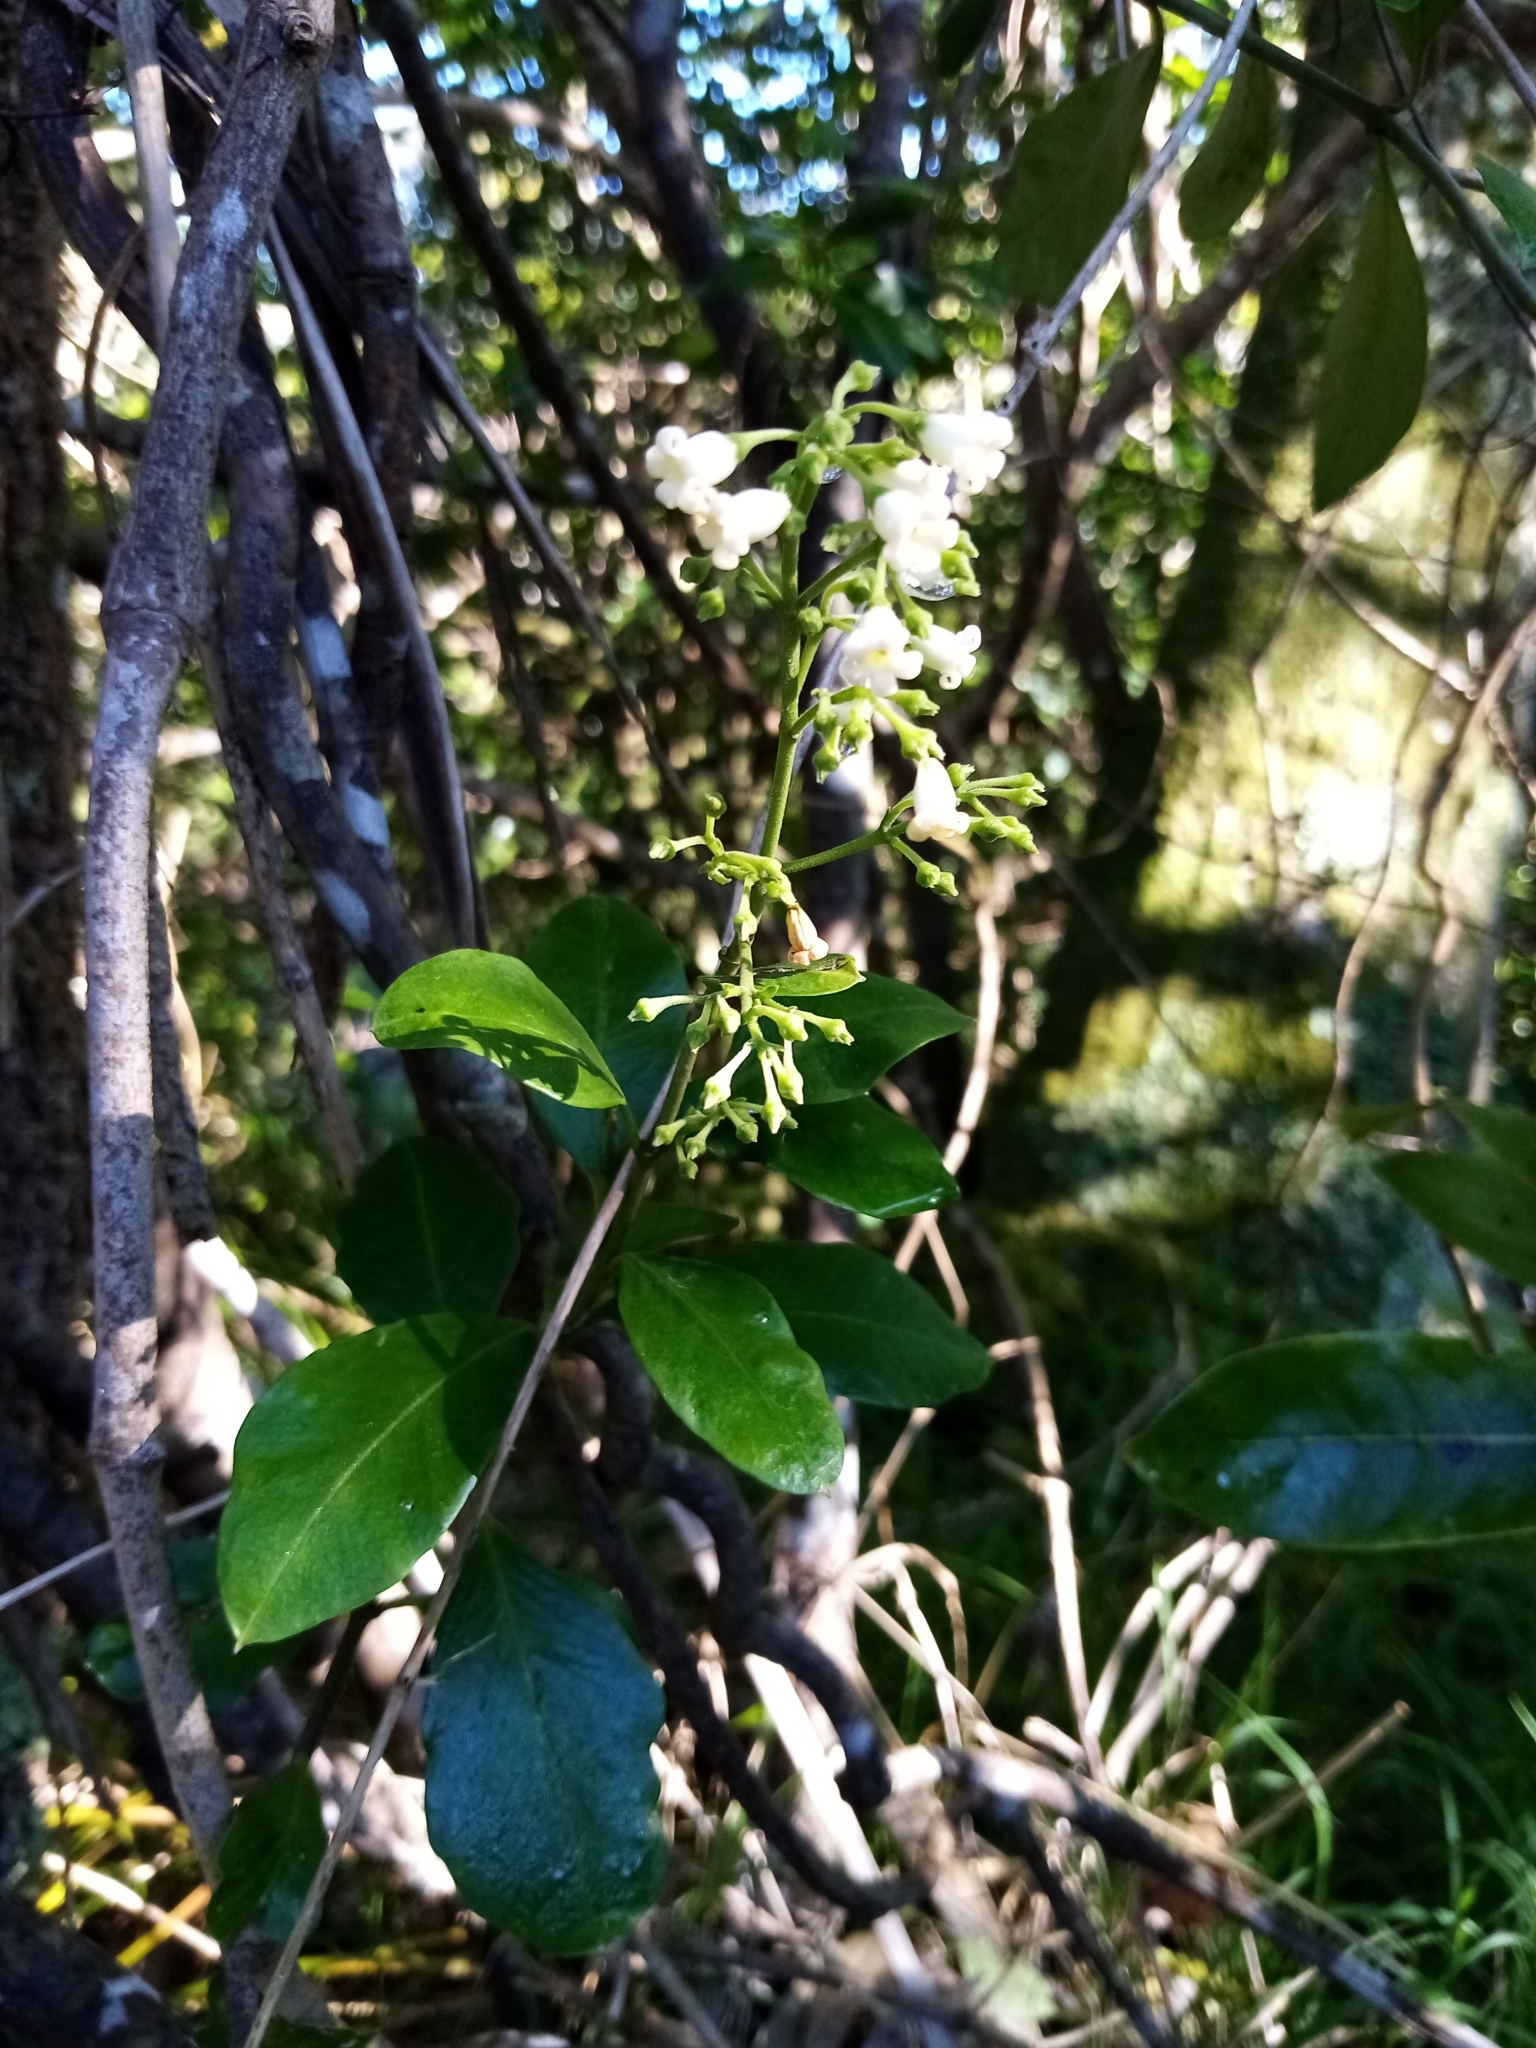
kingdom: Plantae
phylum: Tracheophyta
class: Magnoliopsida
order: Gentianales
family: Apocynaceae
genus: Parsonsia
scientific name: Parsonsia heterophylla
